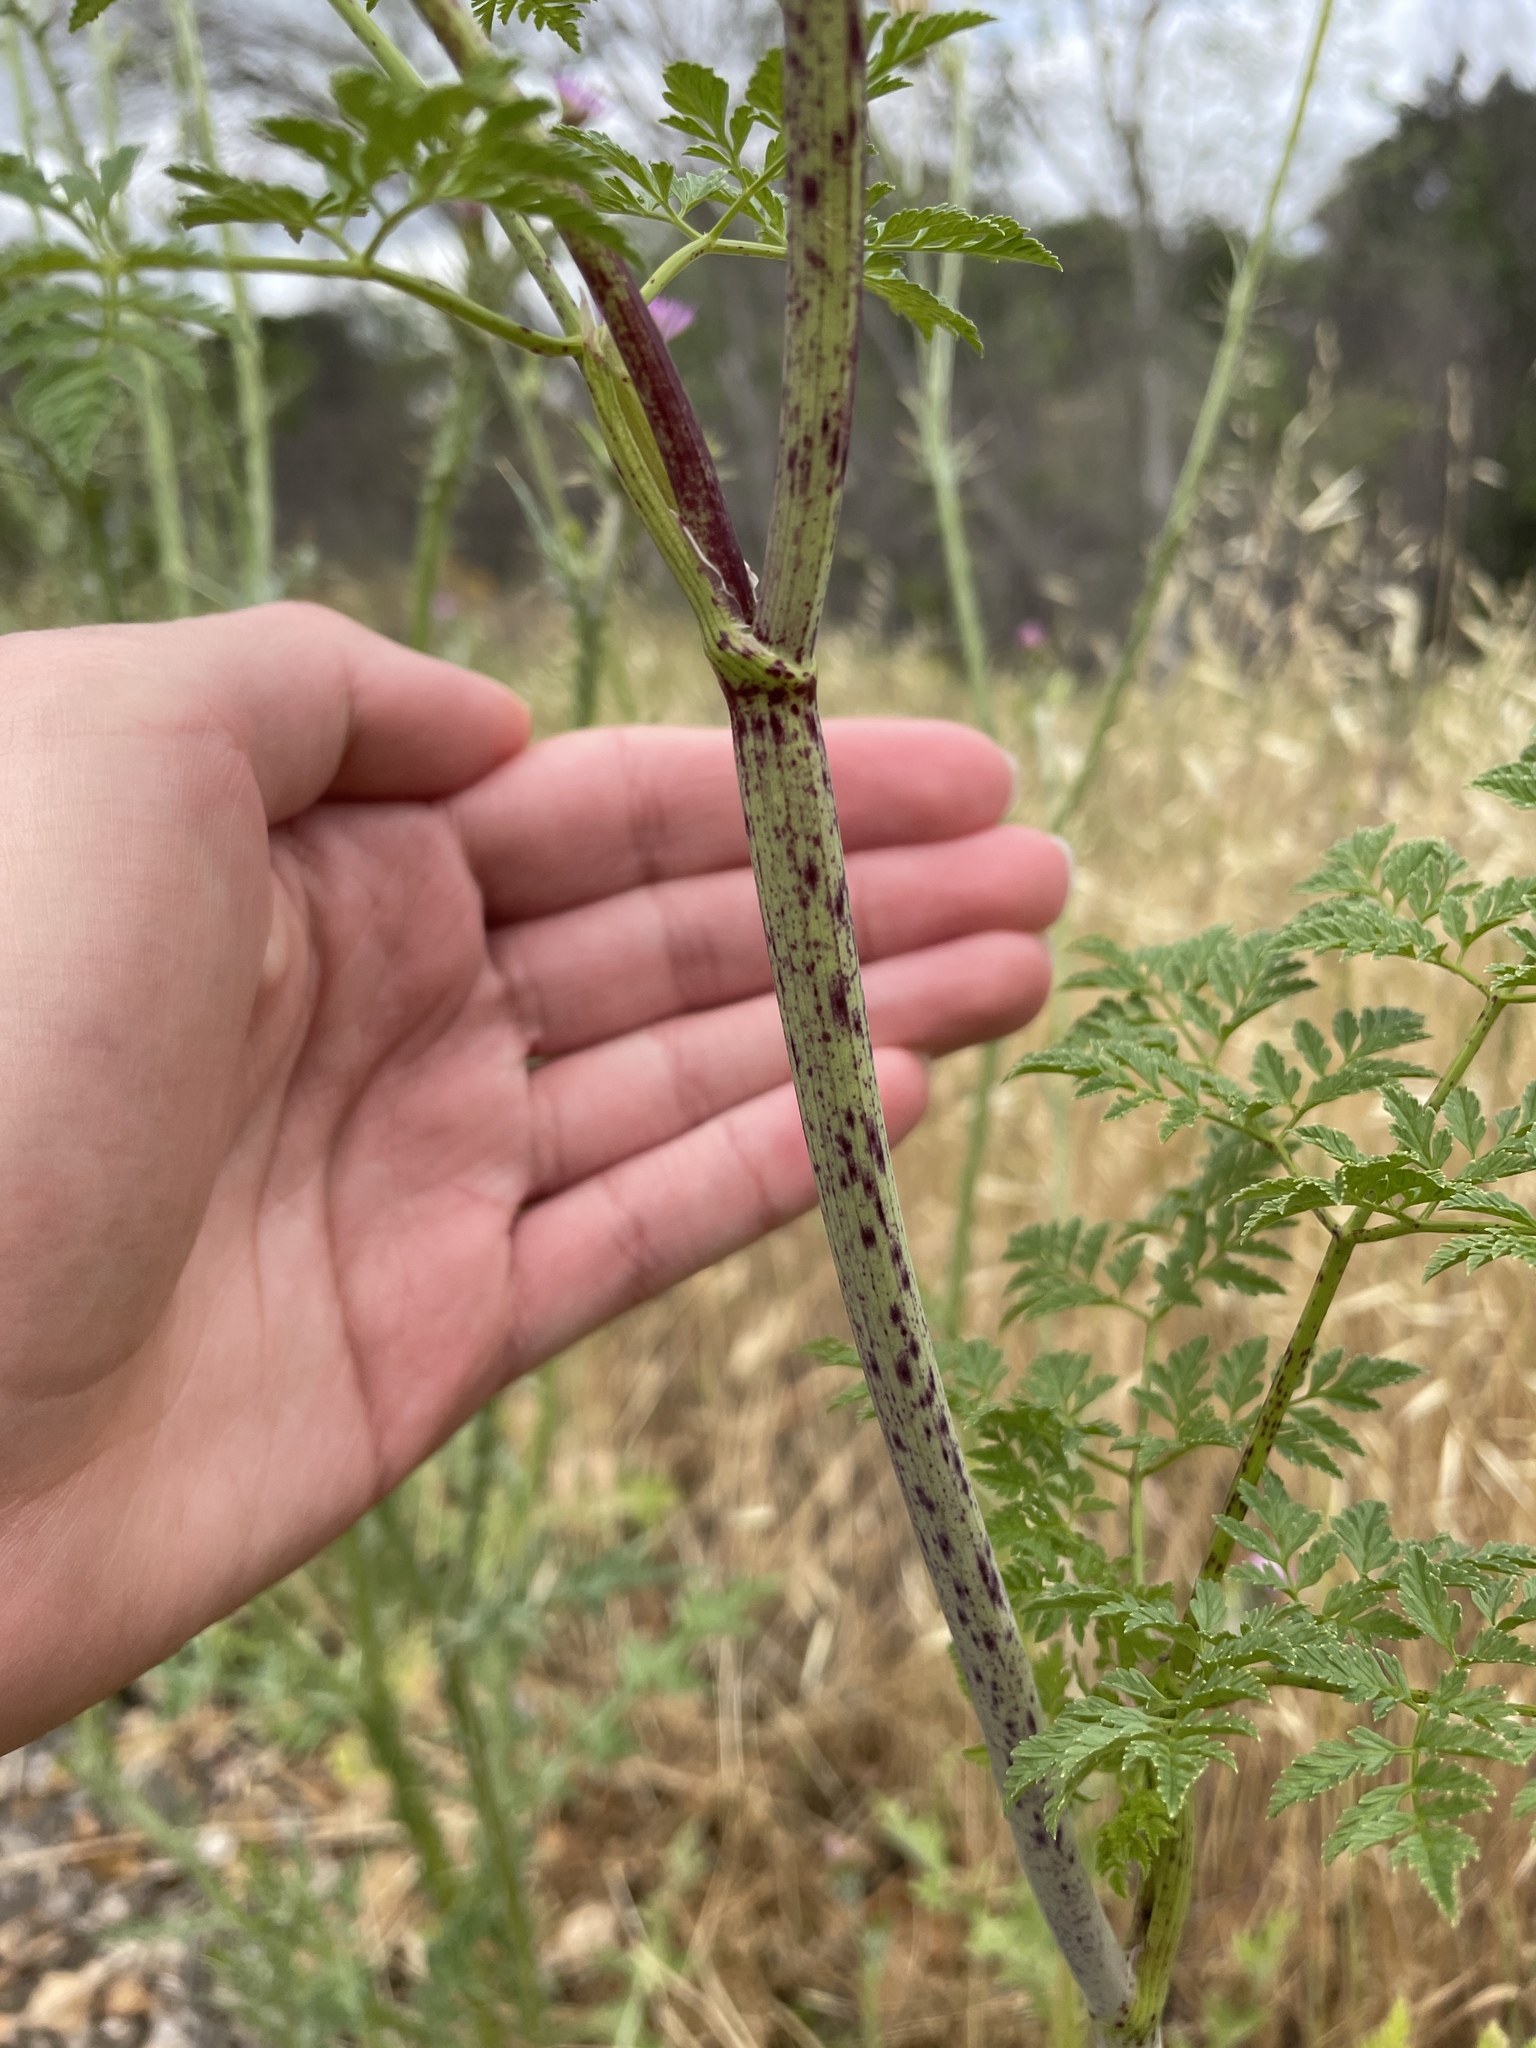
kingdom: Plantae
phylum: Tracheophyta
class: Magnoliopsida
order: Apiales
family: Apiaceae
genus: Conium
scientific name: Conium maculatum
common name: Hemlock
